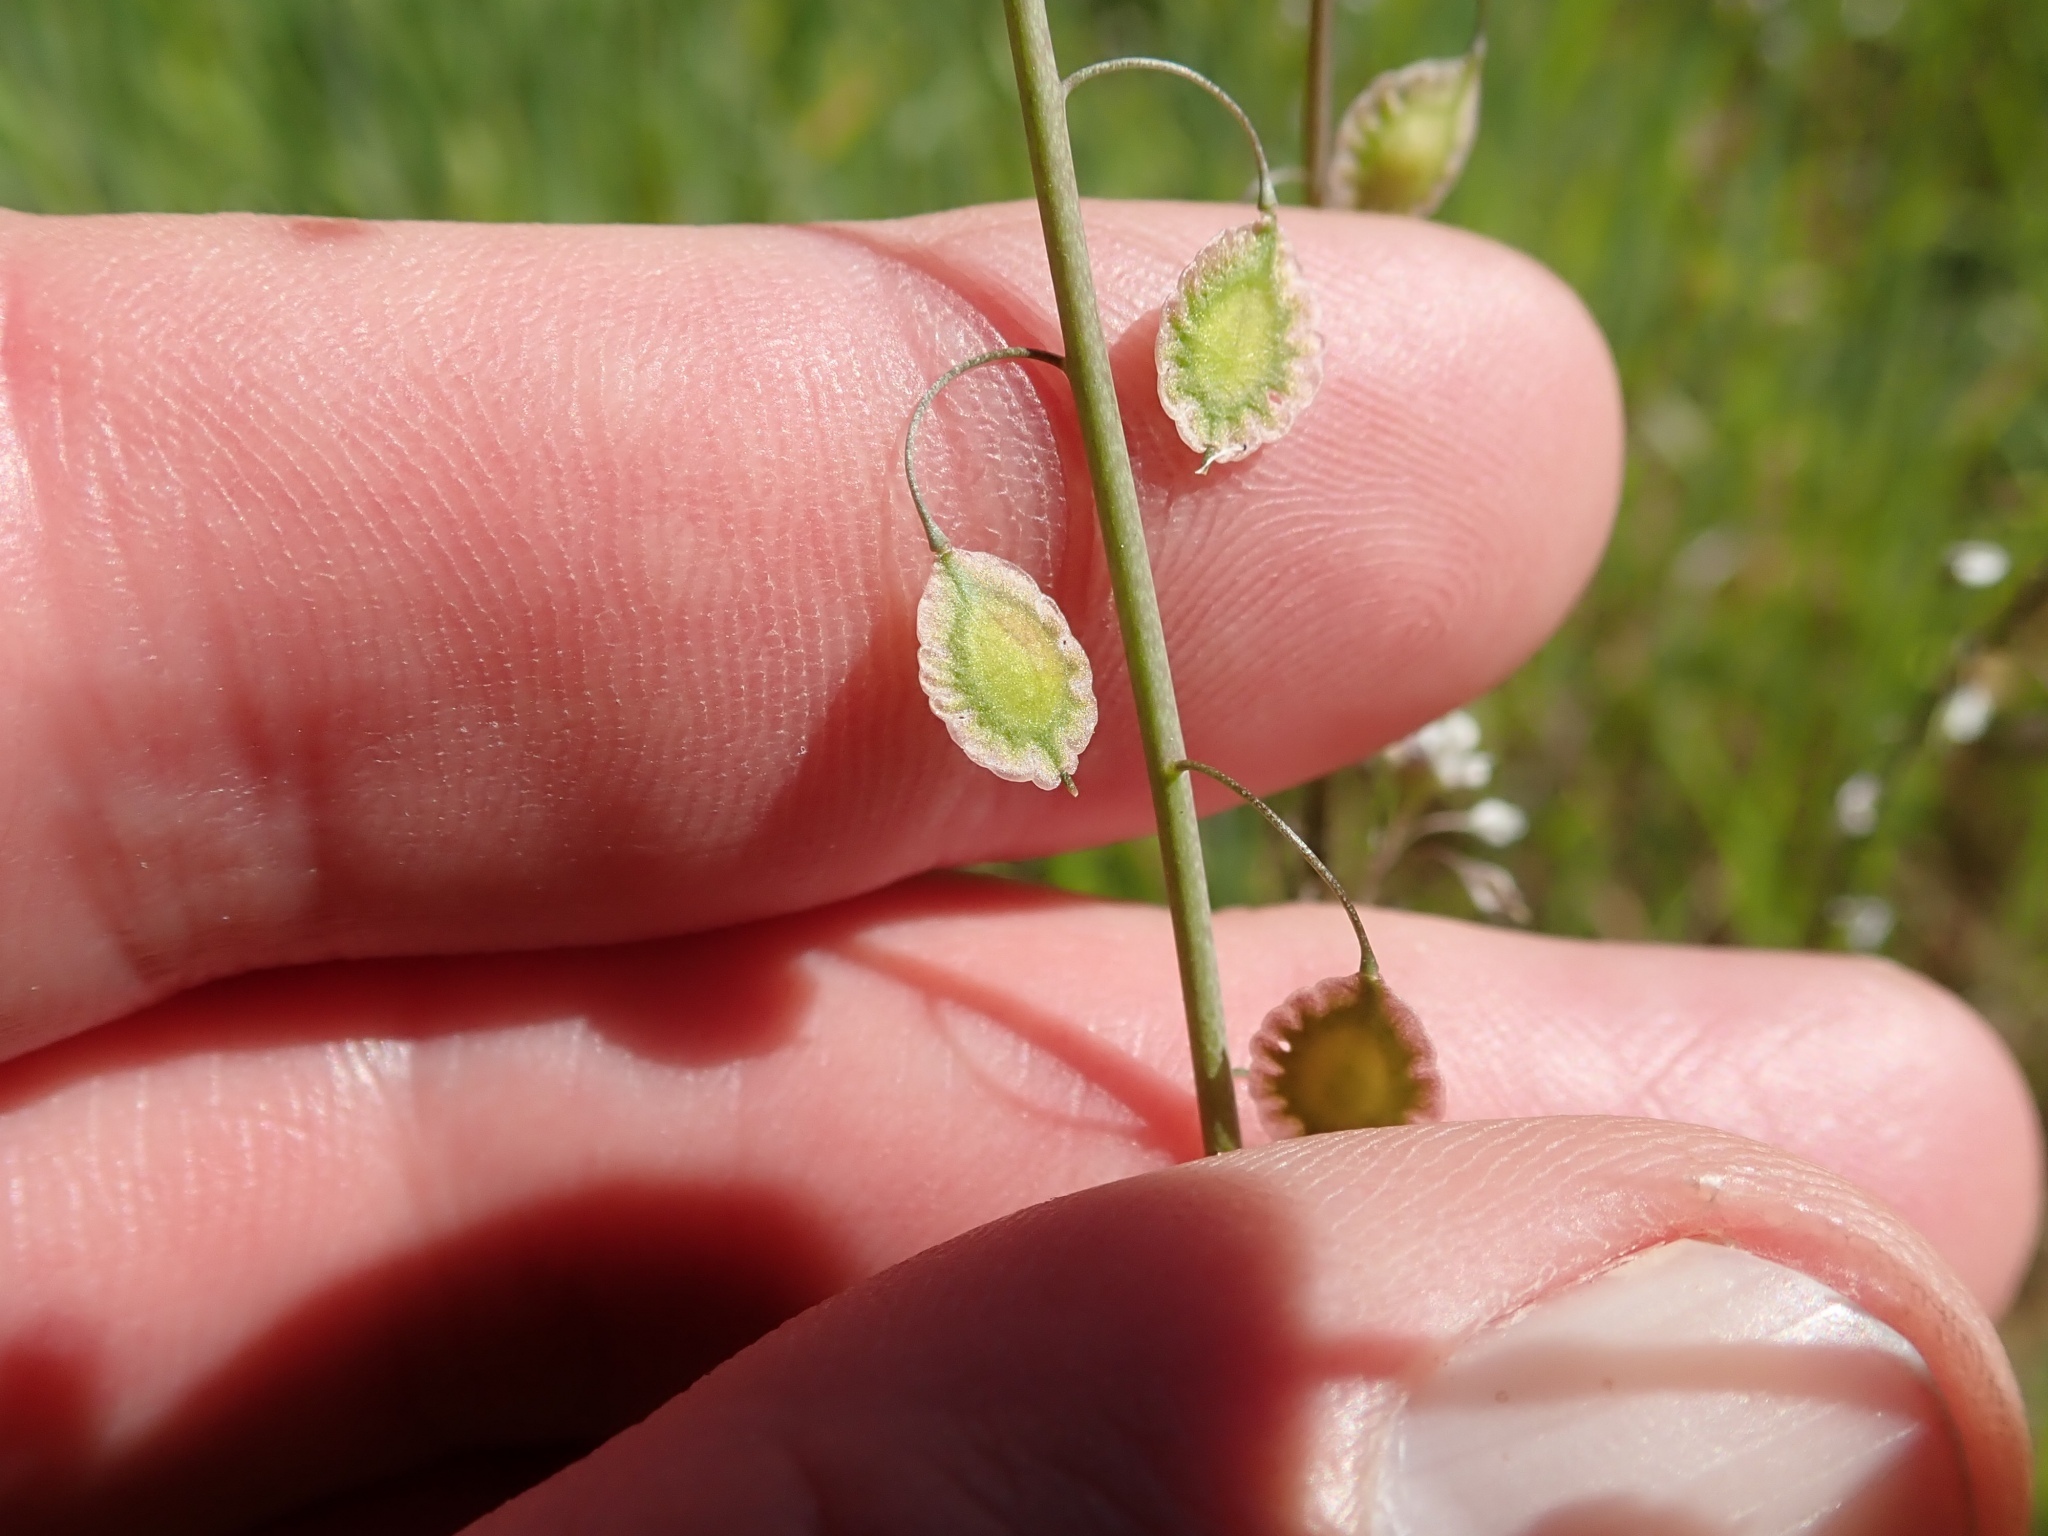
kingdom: Plantae
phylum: Tracheophyta
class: Magnoliopsida
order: Brassicales
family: Brassicaceae
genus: Thysanocarpus
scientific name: Thysanocarpus laciniatus
